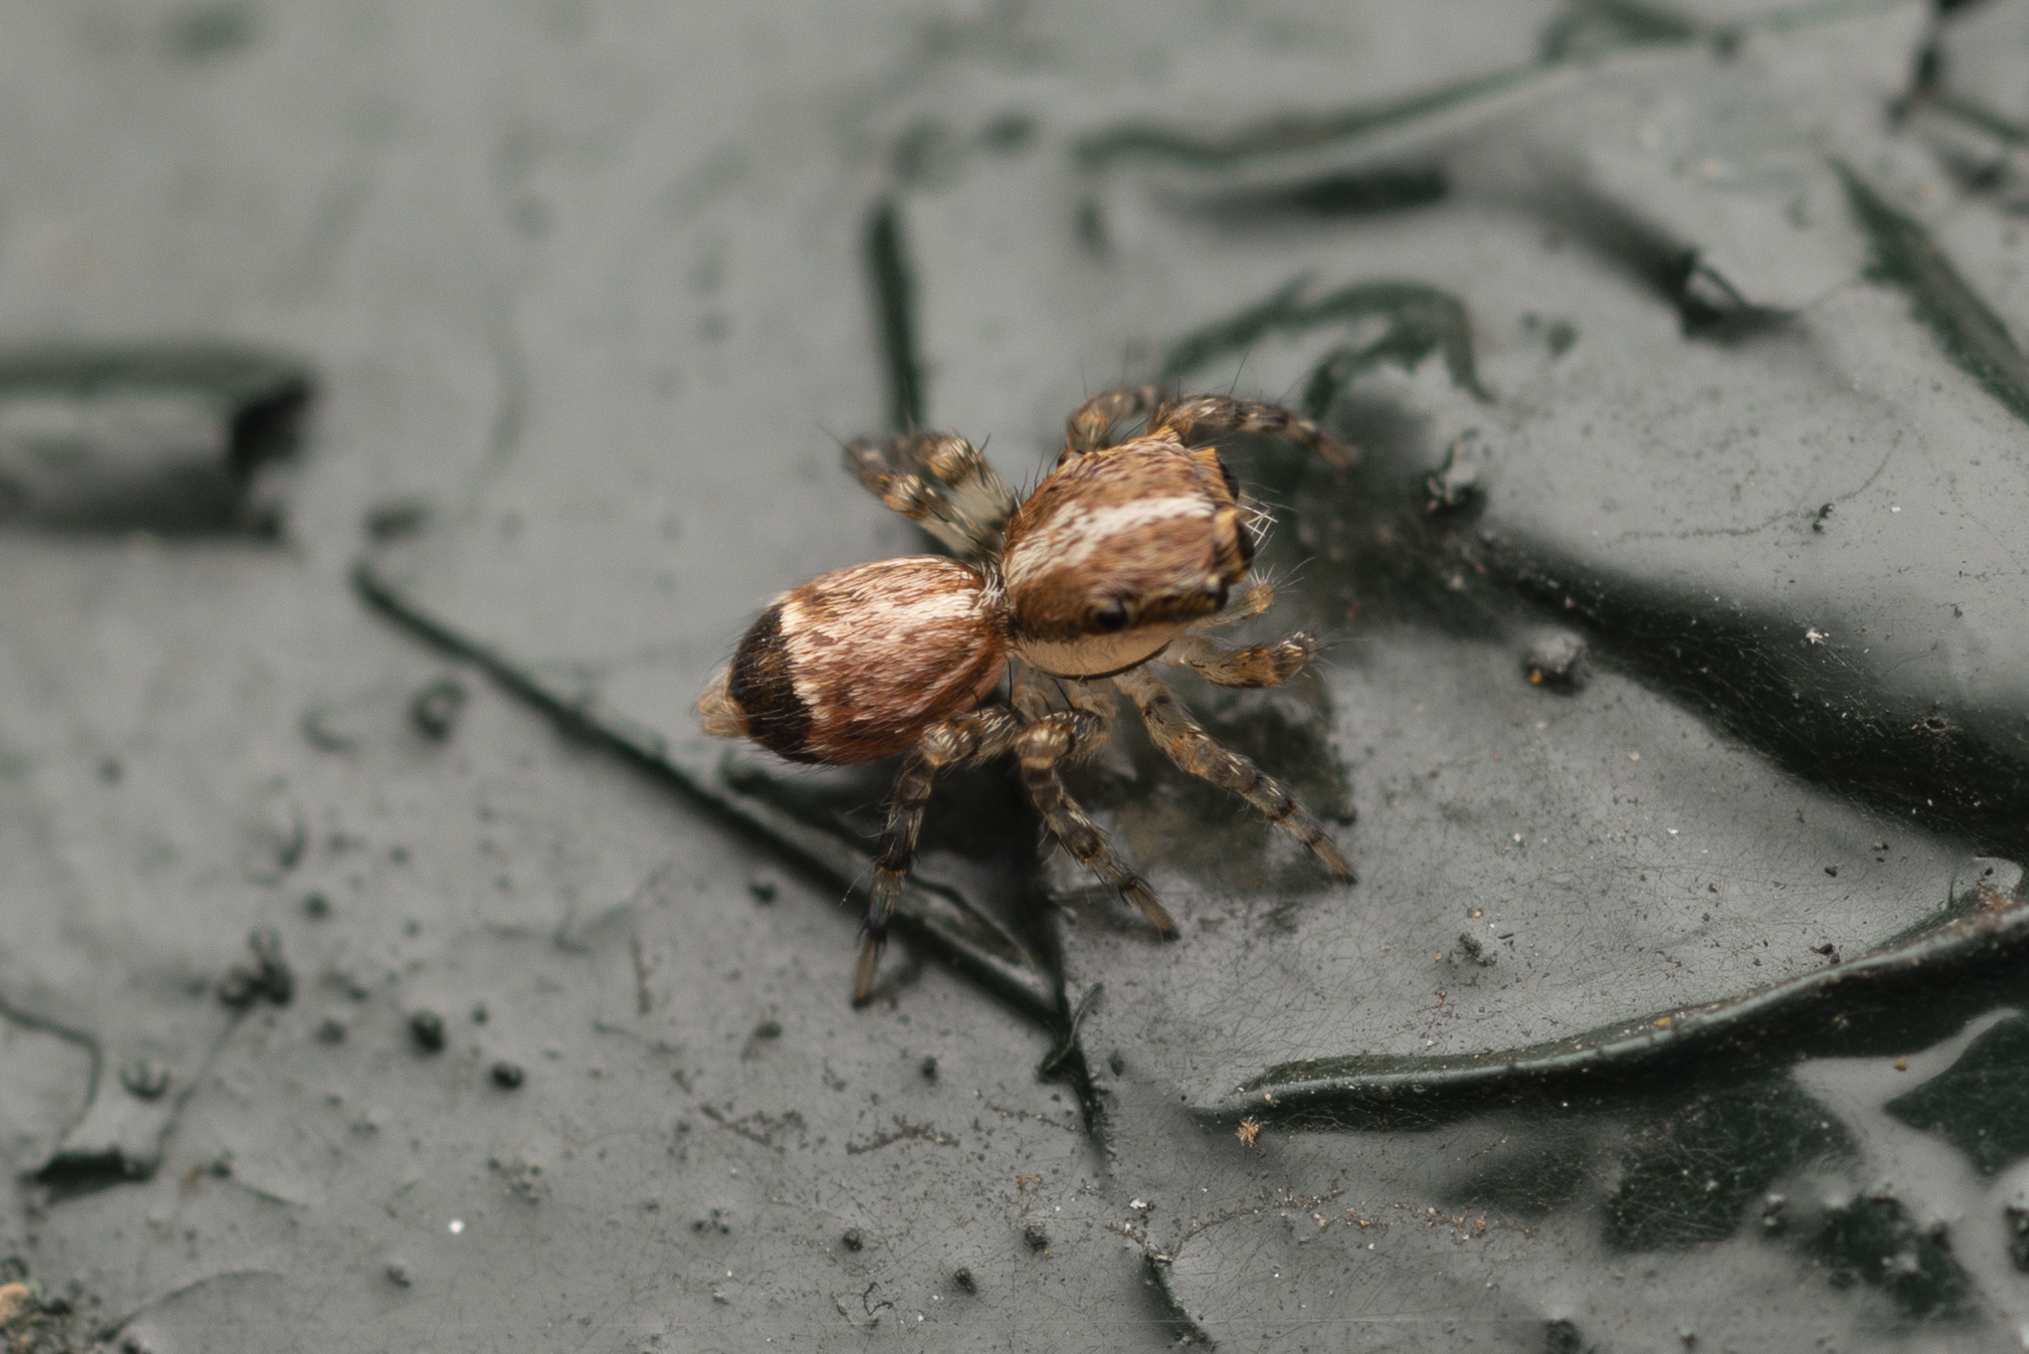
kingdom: Animalia
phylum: Arthropoda
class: Arachnida
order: Araneae
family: Salticidae
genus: Thyene
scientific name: Thyene orientalis
